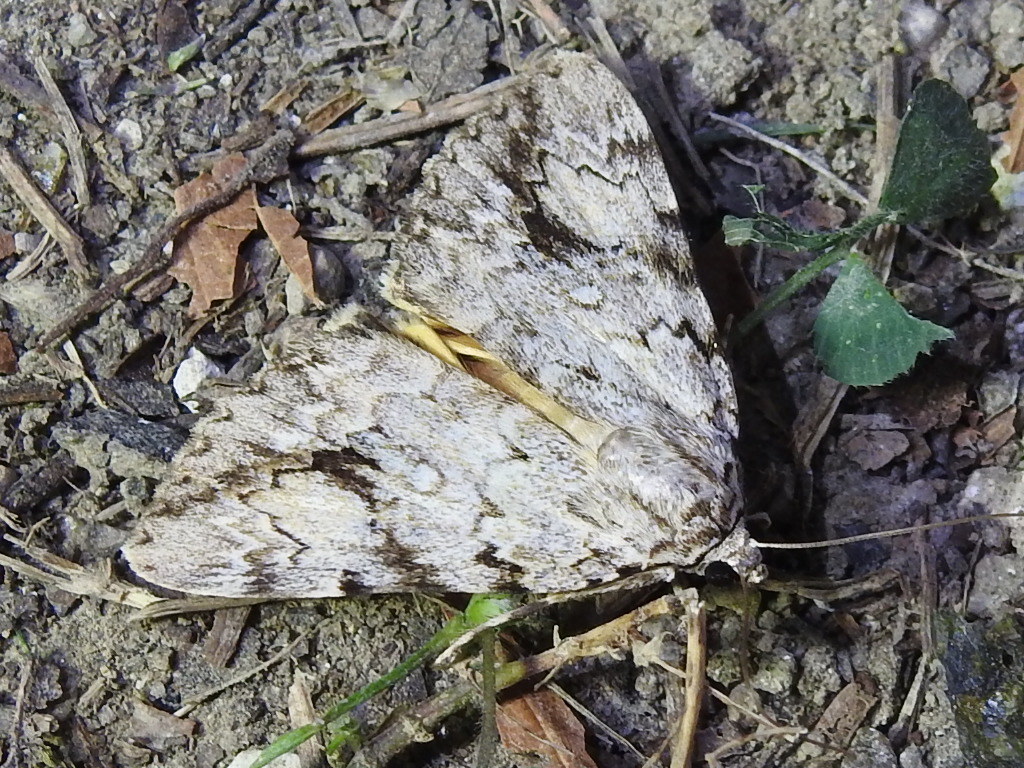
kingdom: Animalia
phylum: Arthropoda
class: Insecta
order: Lepidoptera
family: Erebidae
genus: Catocala
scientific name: Catocala amica
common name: Girlfriend underwing
